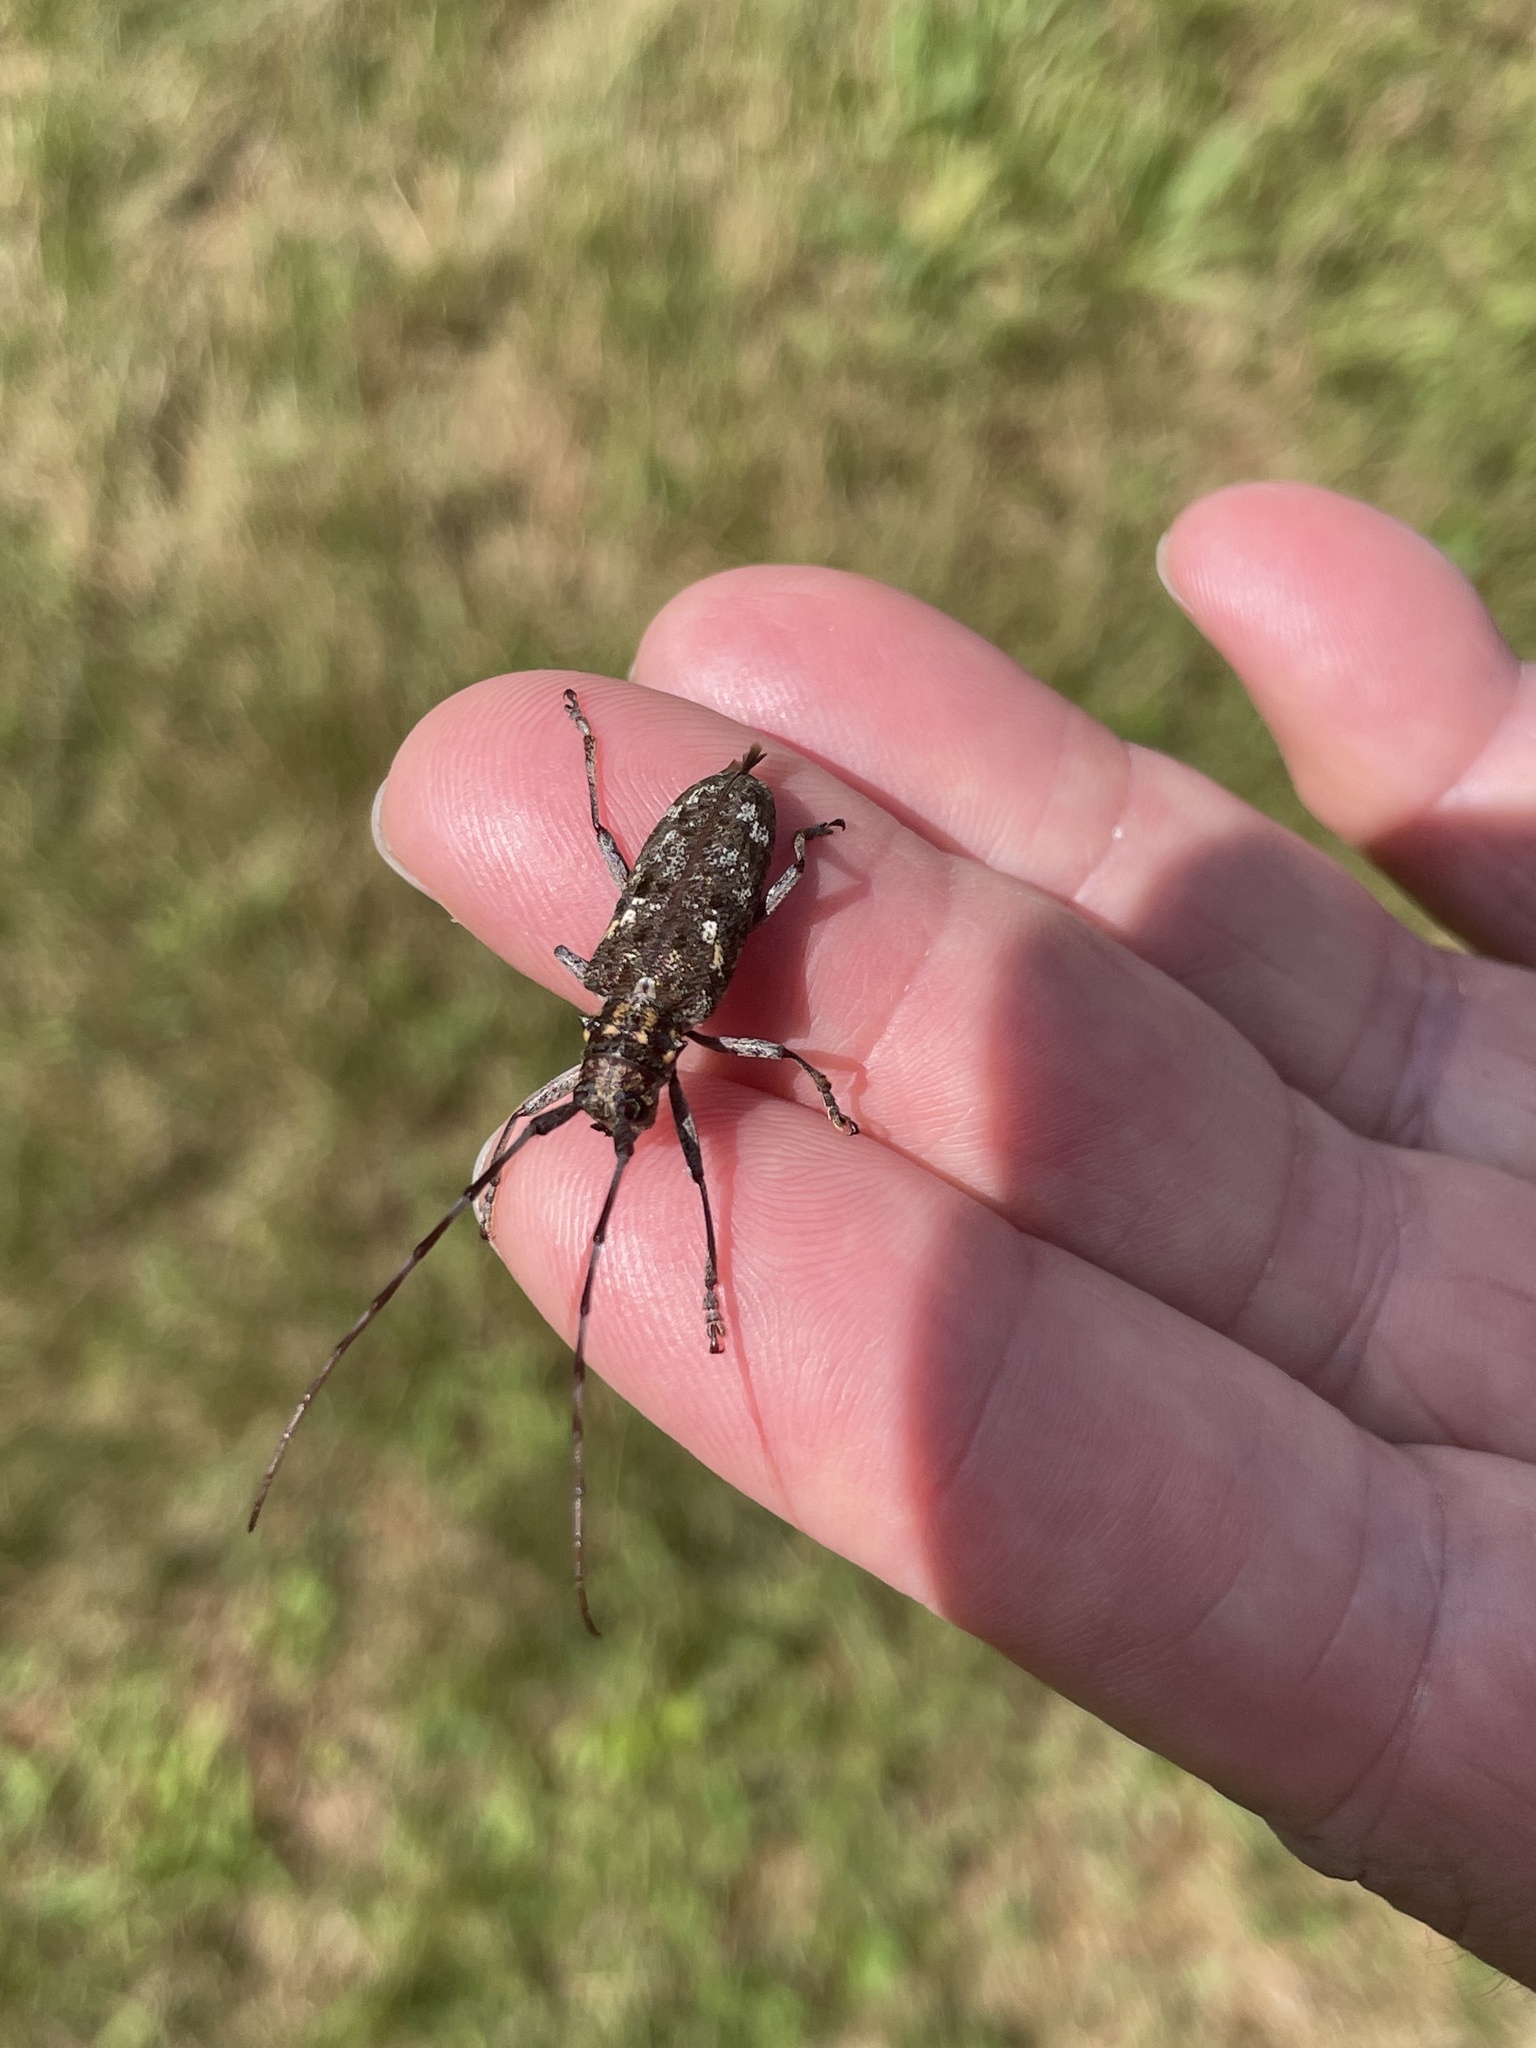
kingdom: Animalia
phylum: Arthropoda
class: Insecta
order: Coleoptera
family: Cerambycidae
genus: Monochamus
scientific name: Monochamus carolinensis
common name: Carolina pine sawyer
